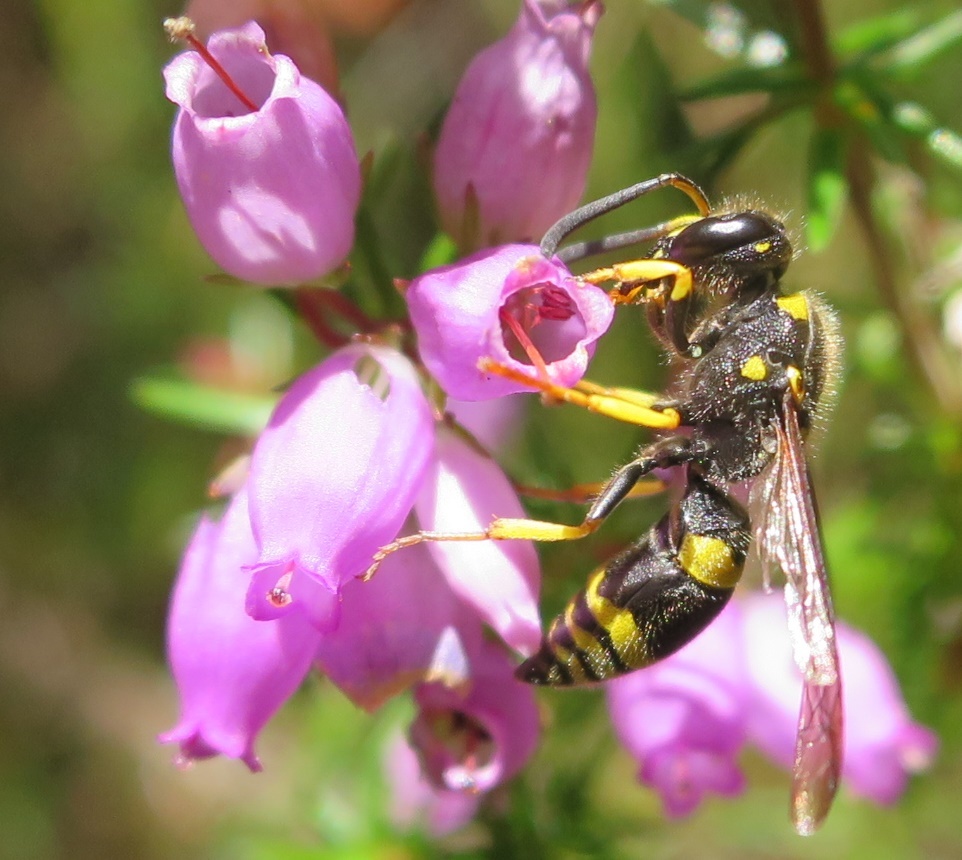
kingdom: Animalia
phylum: Arthropoda
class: Insecta
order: Hymenoptera
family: Vespidae
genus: Ancistrocerus
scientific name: Ancistrocerus gazella
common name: European tube wasp
